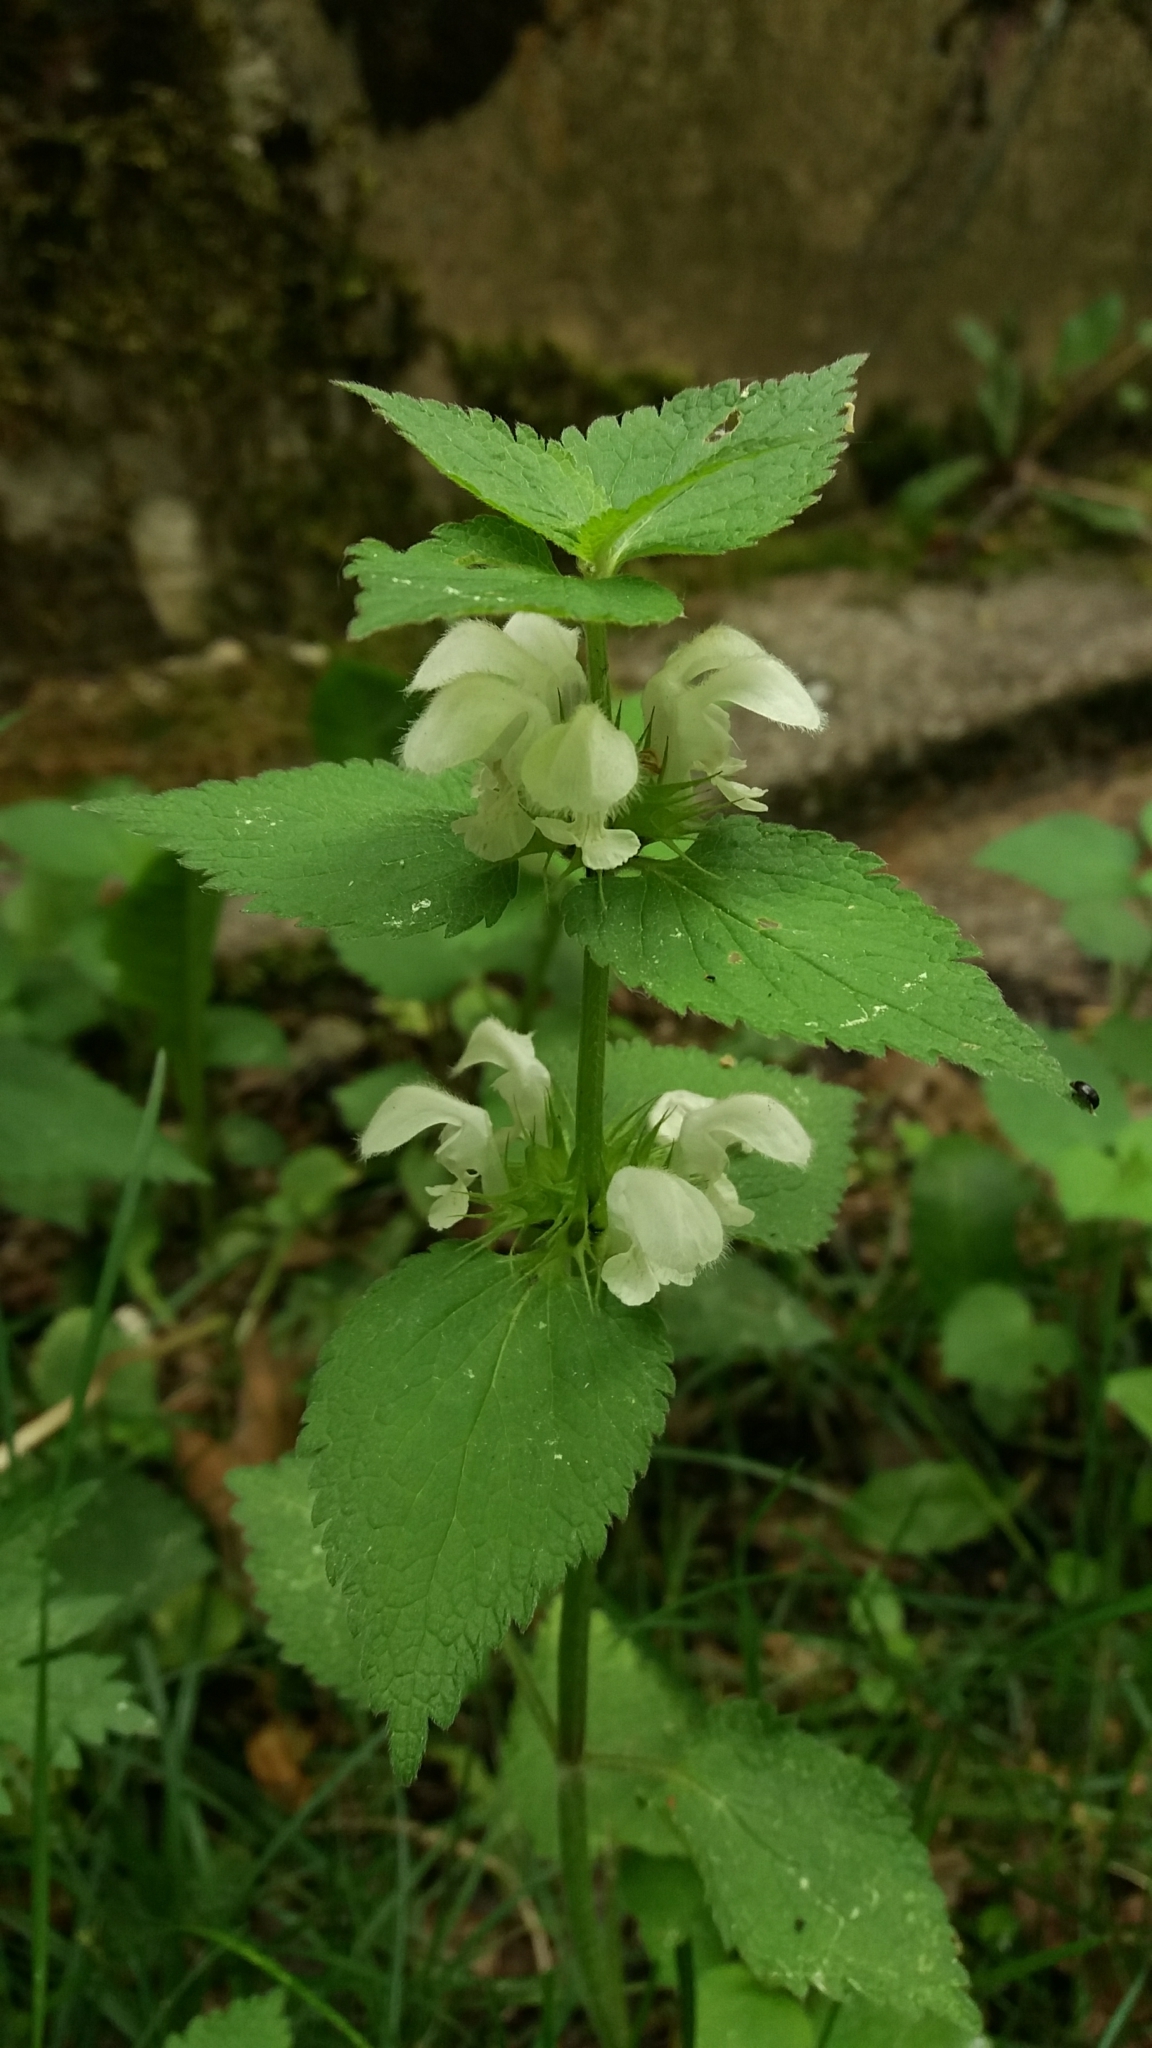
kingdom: Plantae
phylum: Tracheophyta
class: Magnoliopsida
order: Lamiales
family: Lamiaceae
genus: Lamium
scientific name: Lamium album
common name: White dead-nettle
